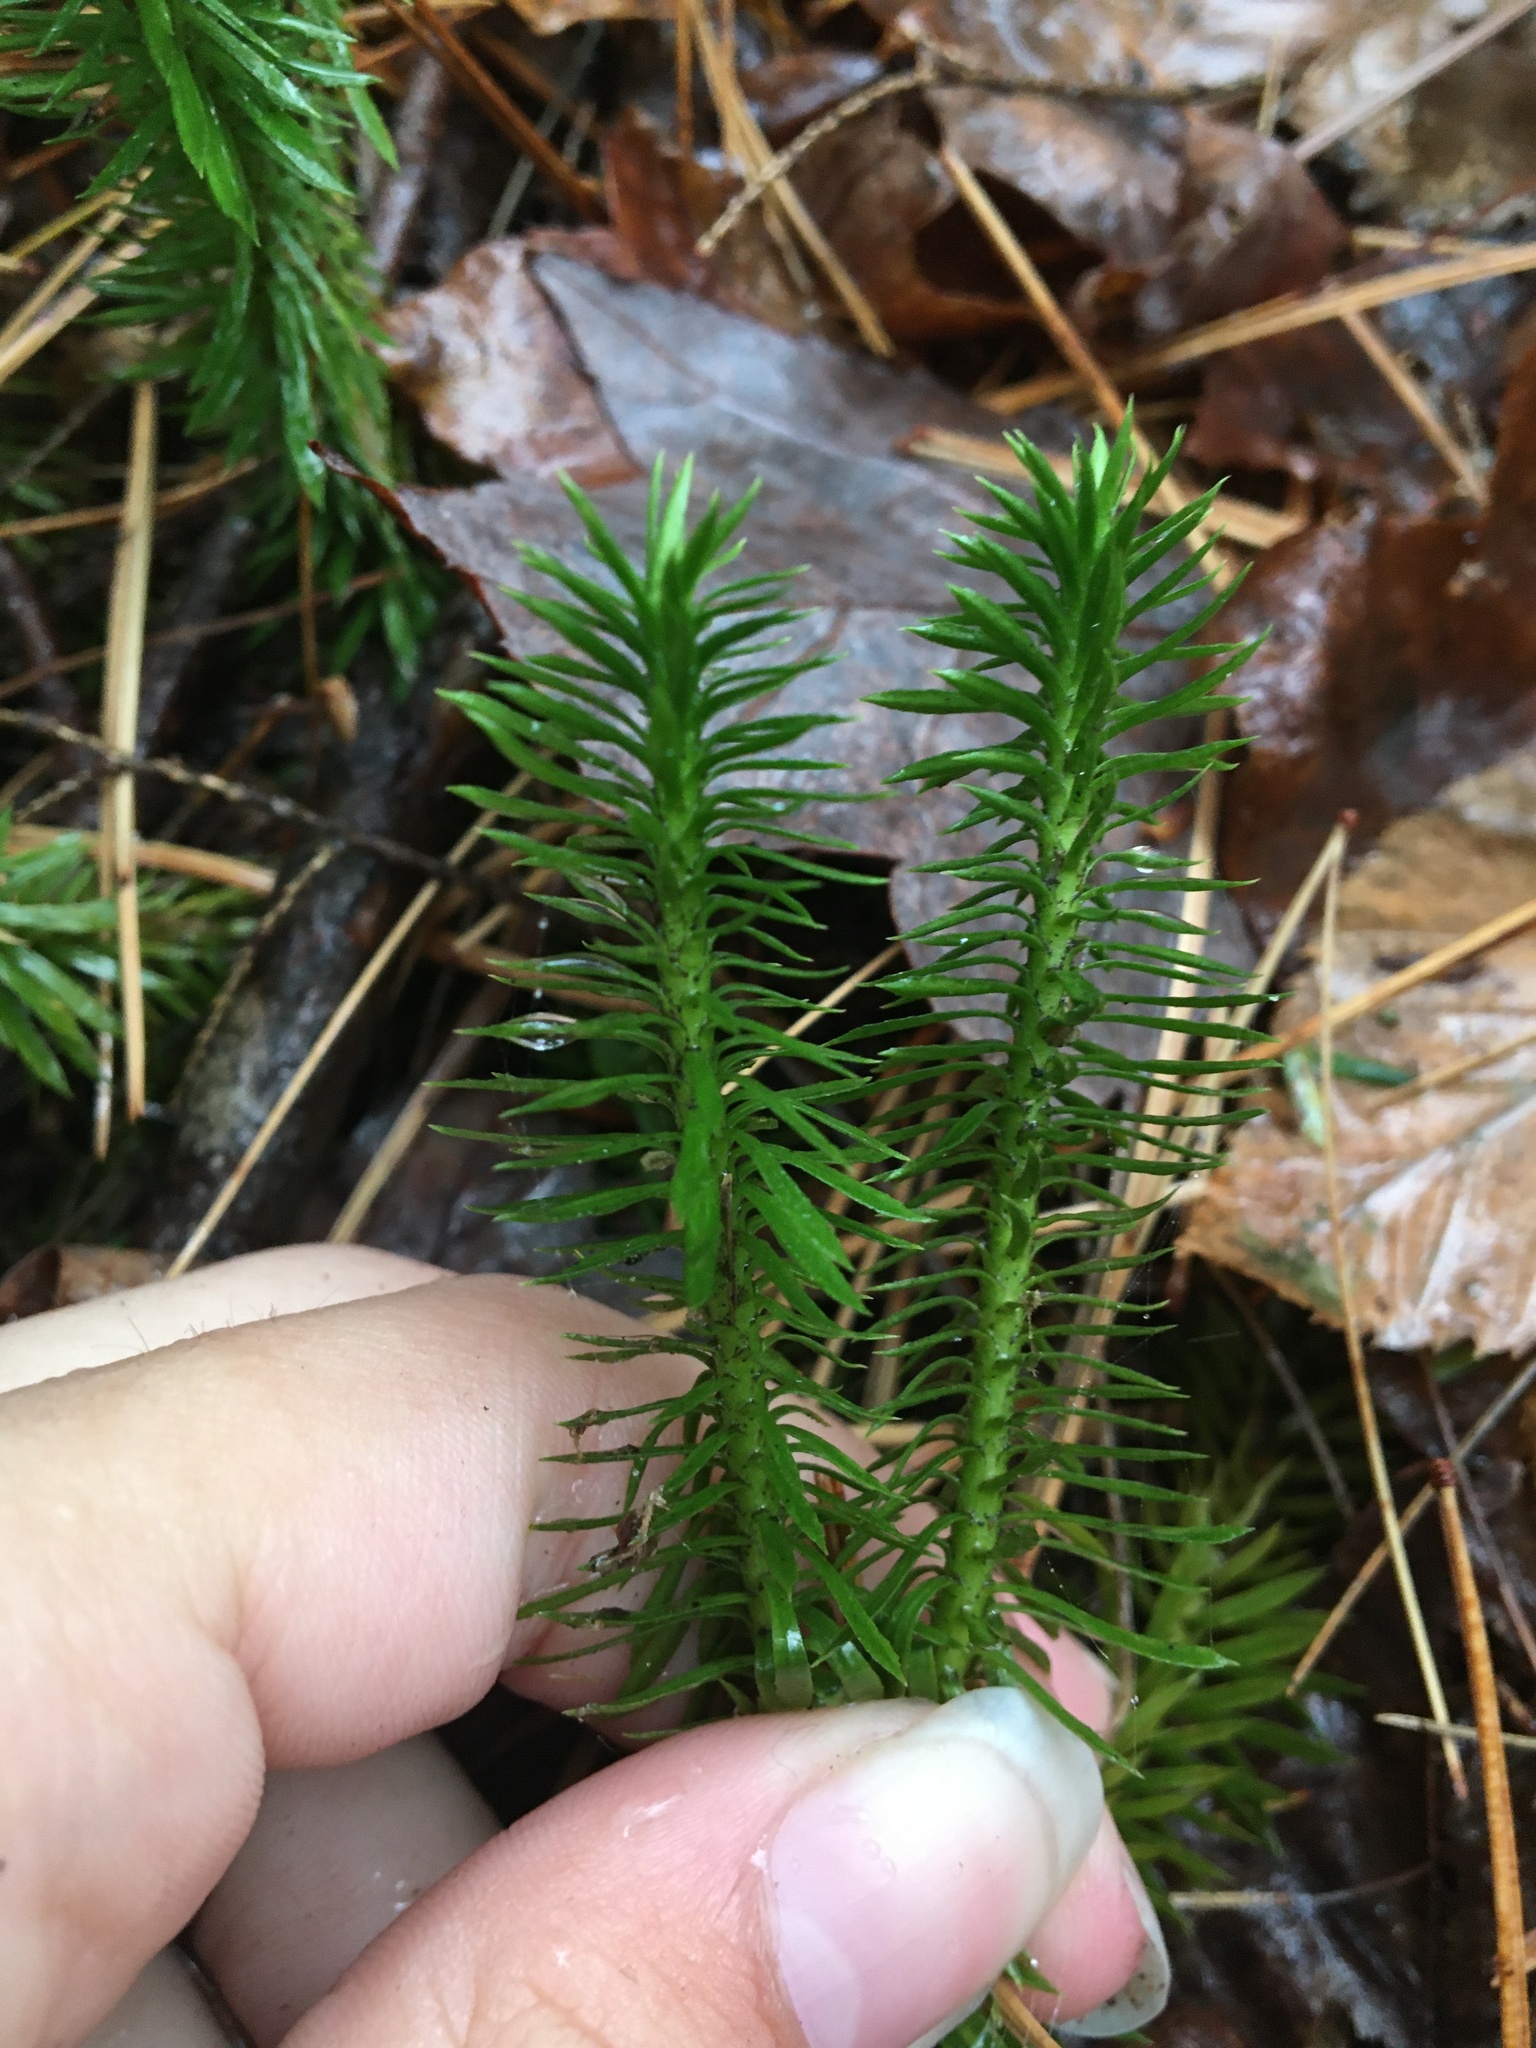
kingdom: Plantae
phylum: Tracheophyta
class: Lycopodiopsida
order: Lycopodiales
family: Lycopodiaceae
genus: Huperzia
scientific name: Huperzia lucidula
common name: Shining clubmoss
